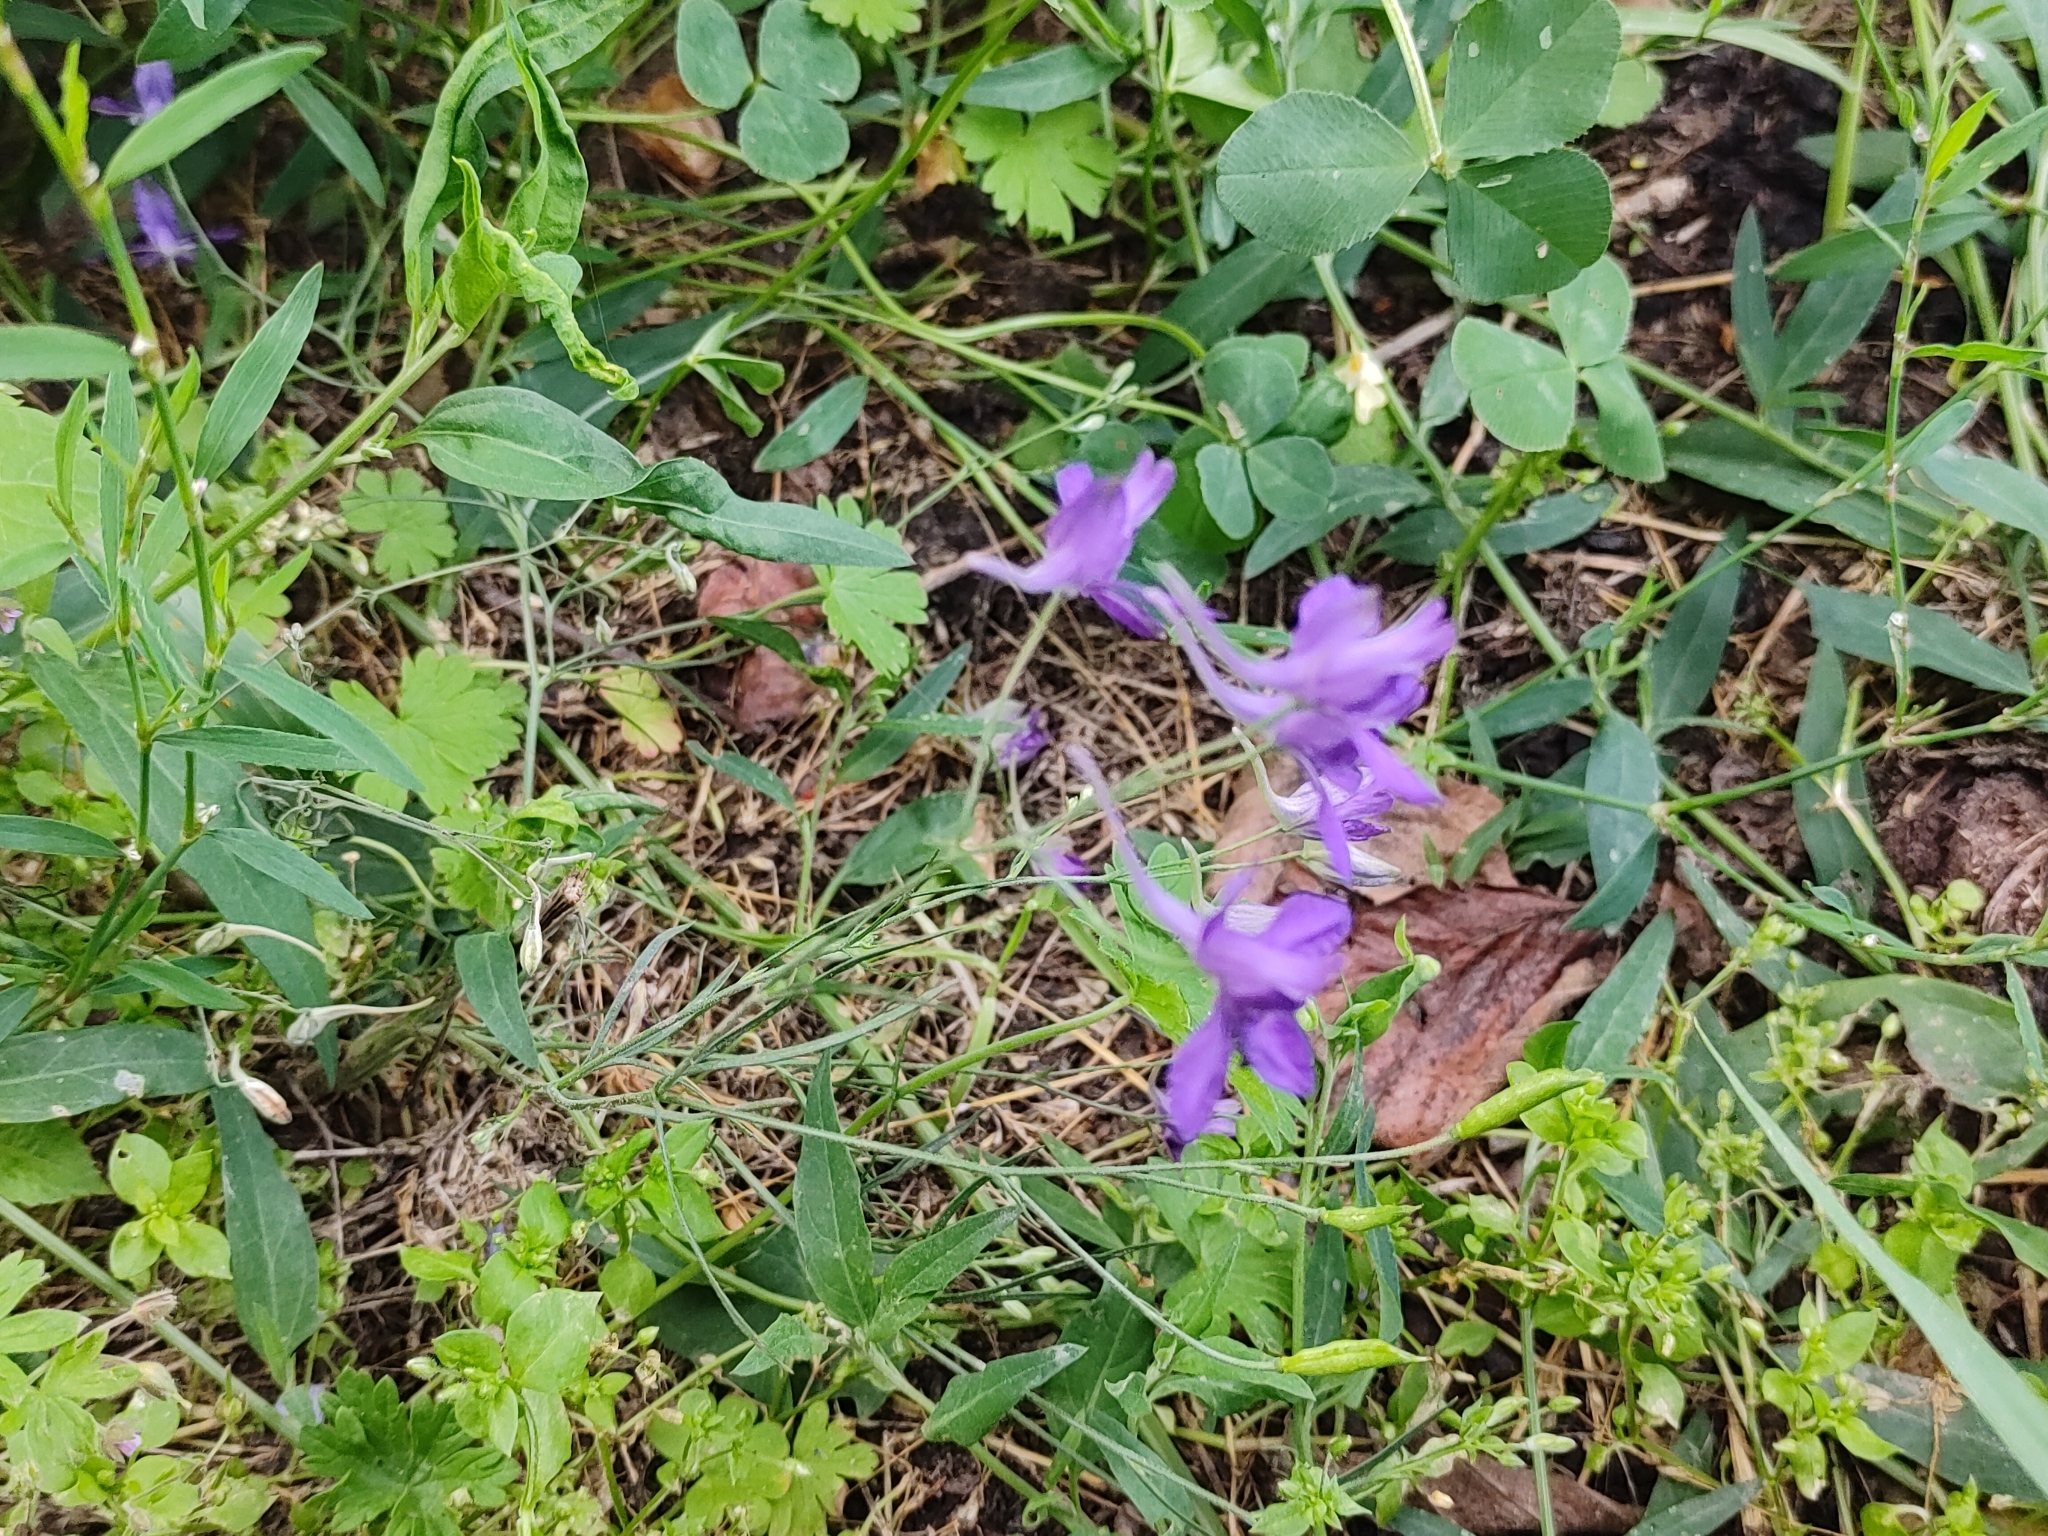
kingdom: Plantae
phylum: Tracheophyta
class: Magnoliopsida
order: Ranunculales
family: Ranunculaceae
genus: Delphinium
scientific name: Delphinium consolida
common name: Branching larkspur
